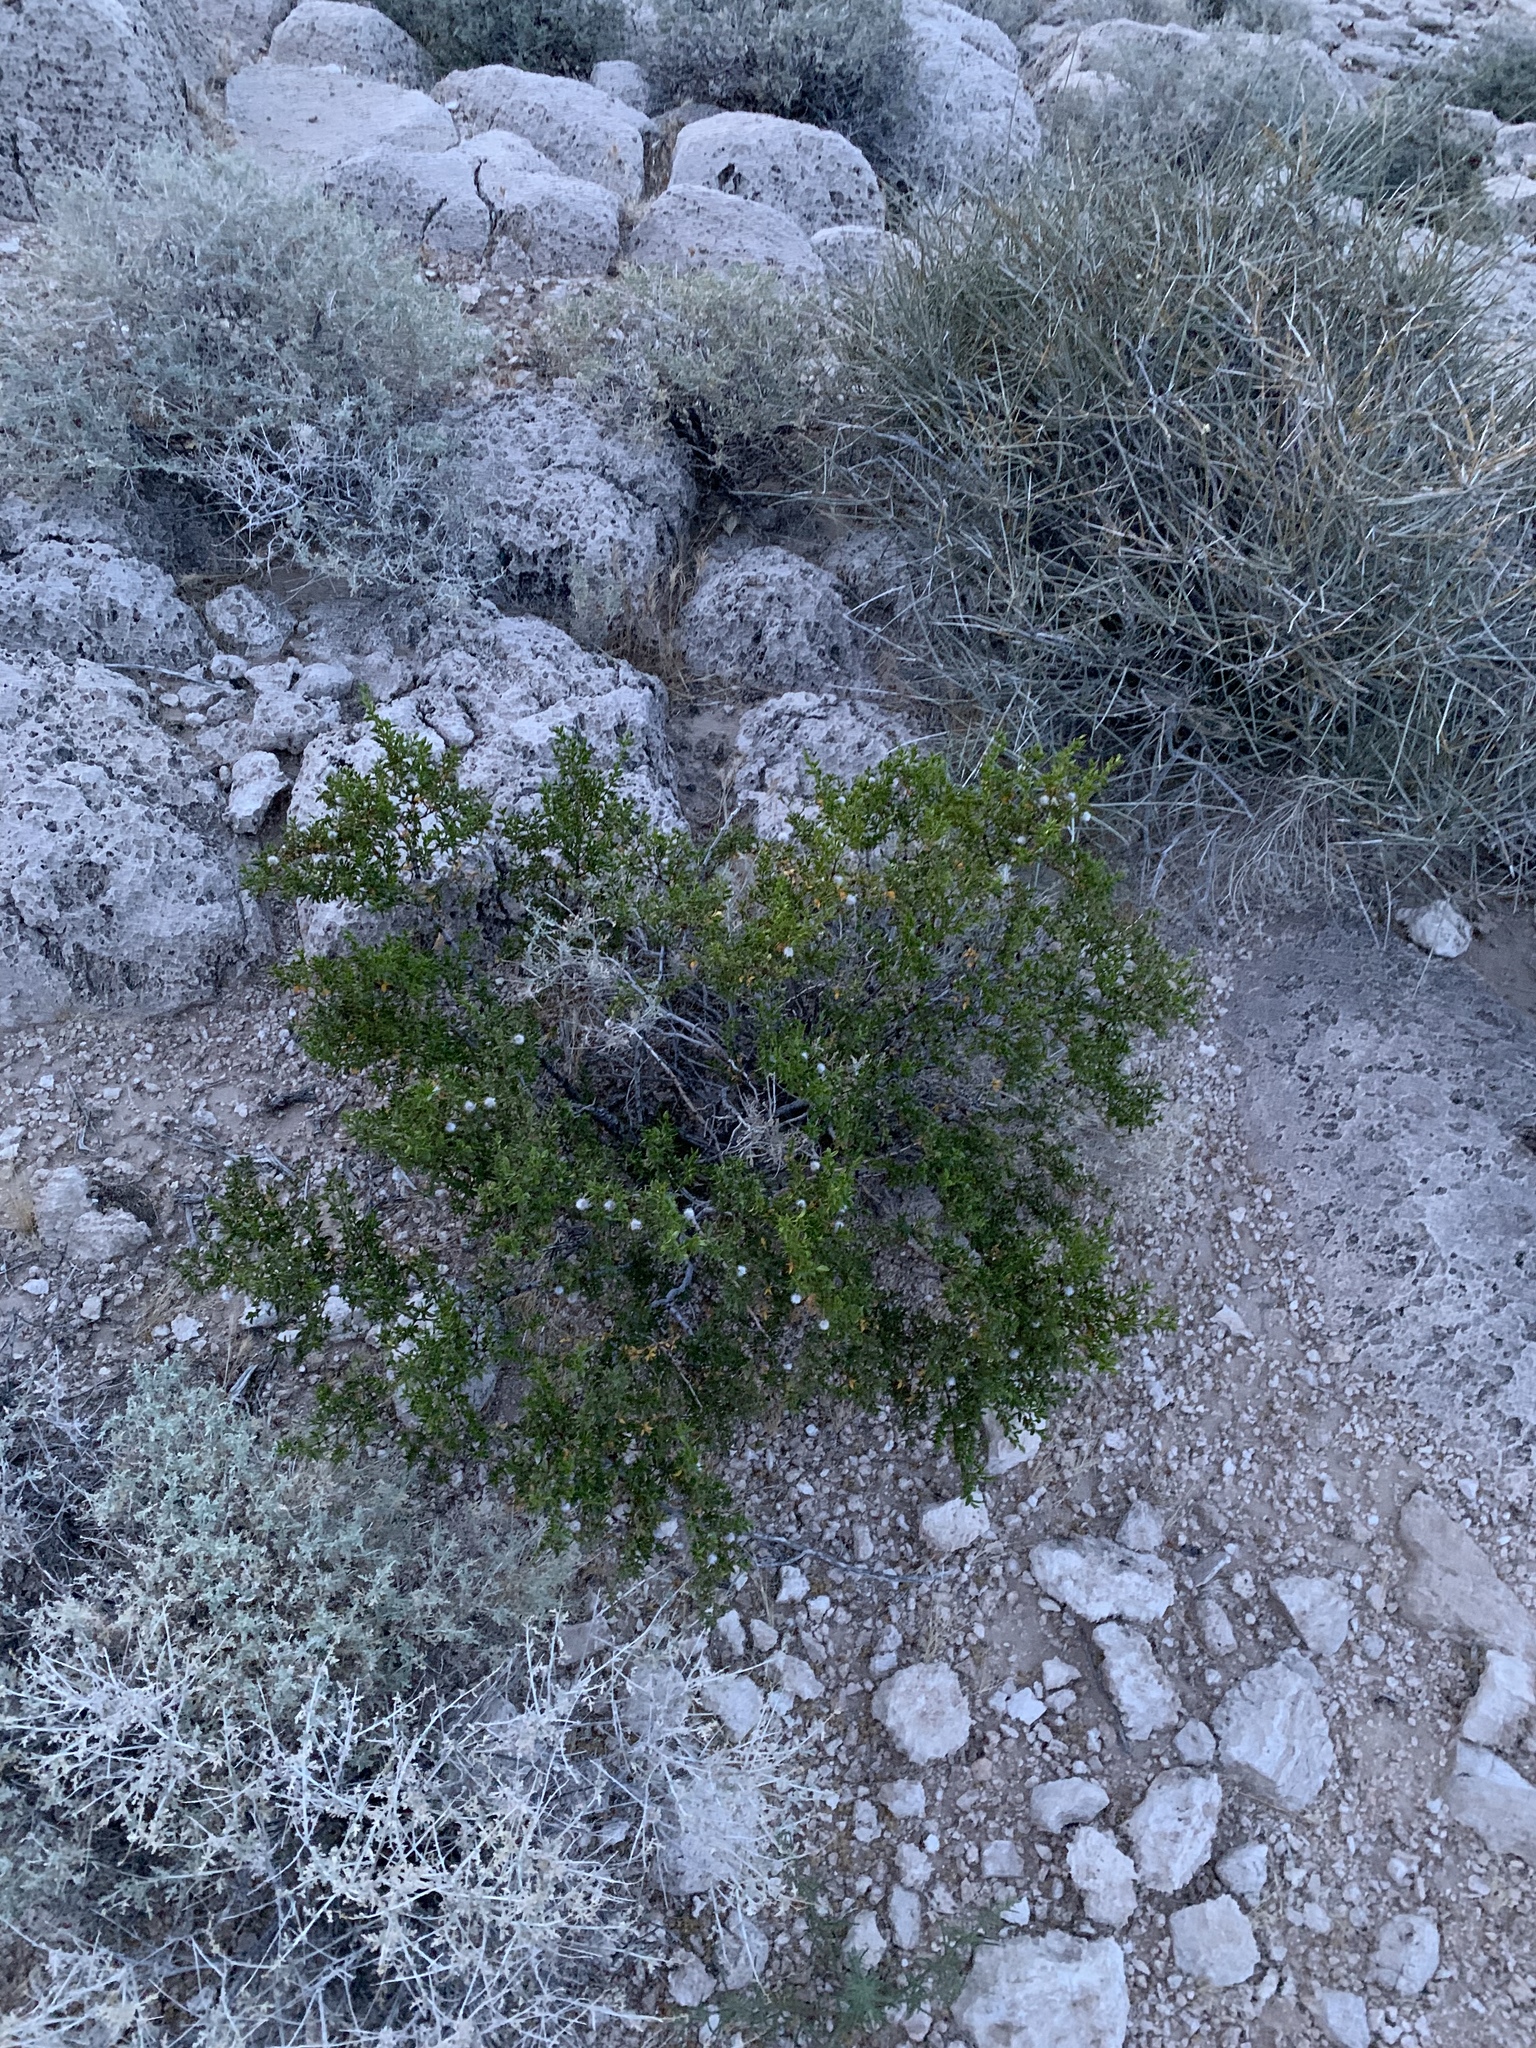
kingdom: Plantae
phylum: Tracheophyta
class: Magnoliopsida
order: Zygophyllales
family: Zygophyllaceae
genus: Larrea
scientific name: Larrea tridentata
